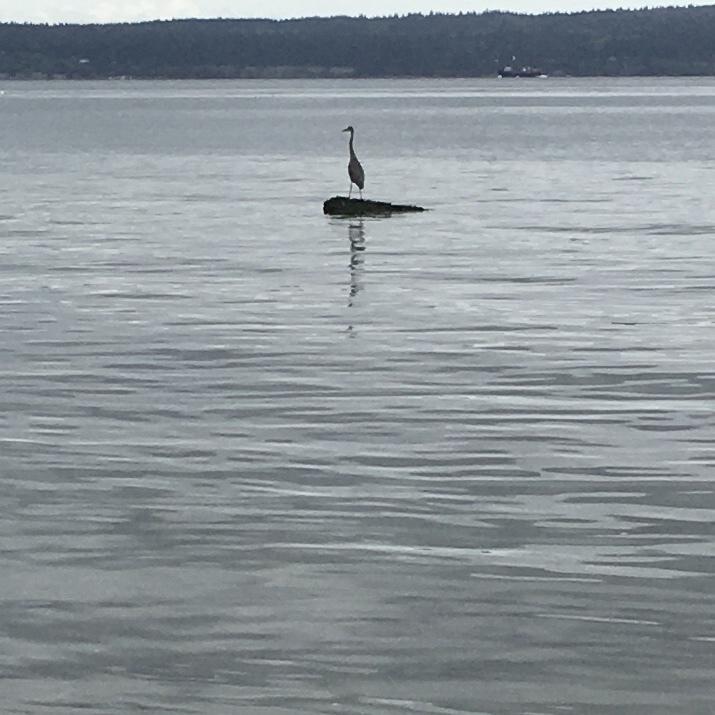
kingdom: Animalia
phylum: Chordata
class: Aves
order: Pelecaniformes
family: Ardeidae
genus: Ardea
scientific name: Ardea herodias
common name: Great blue heron
